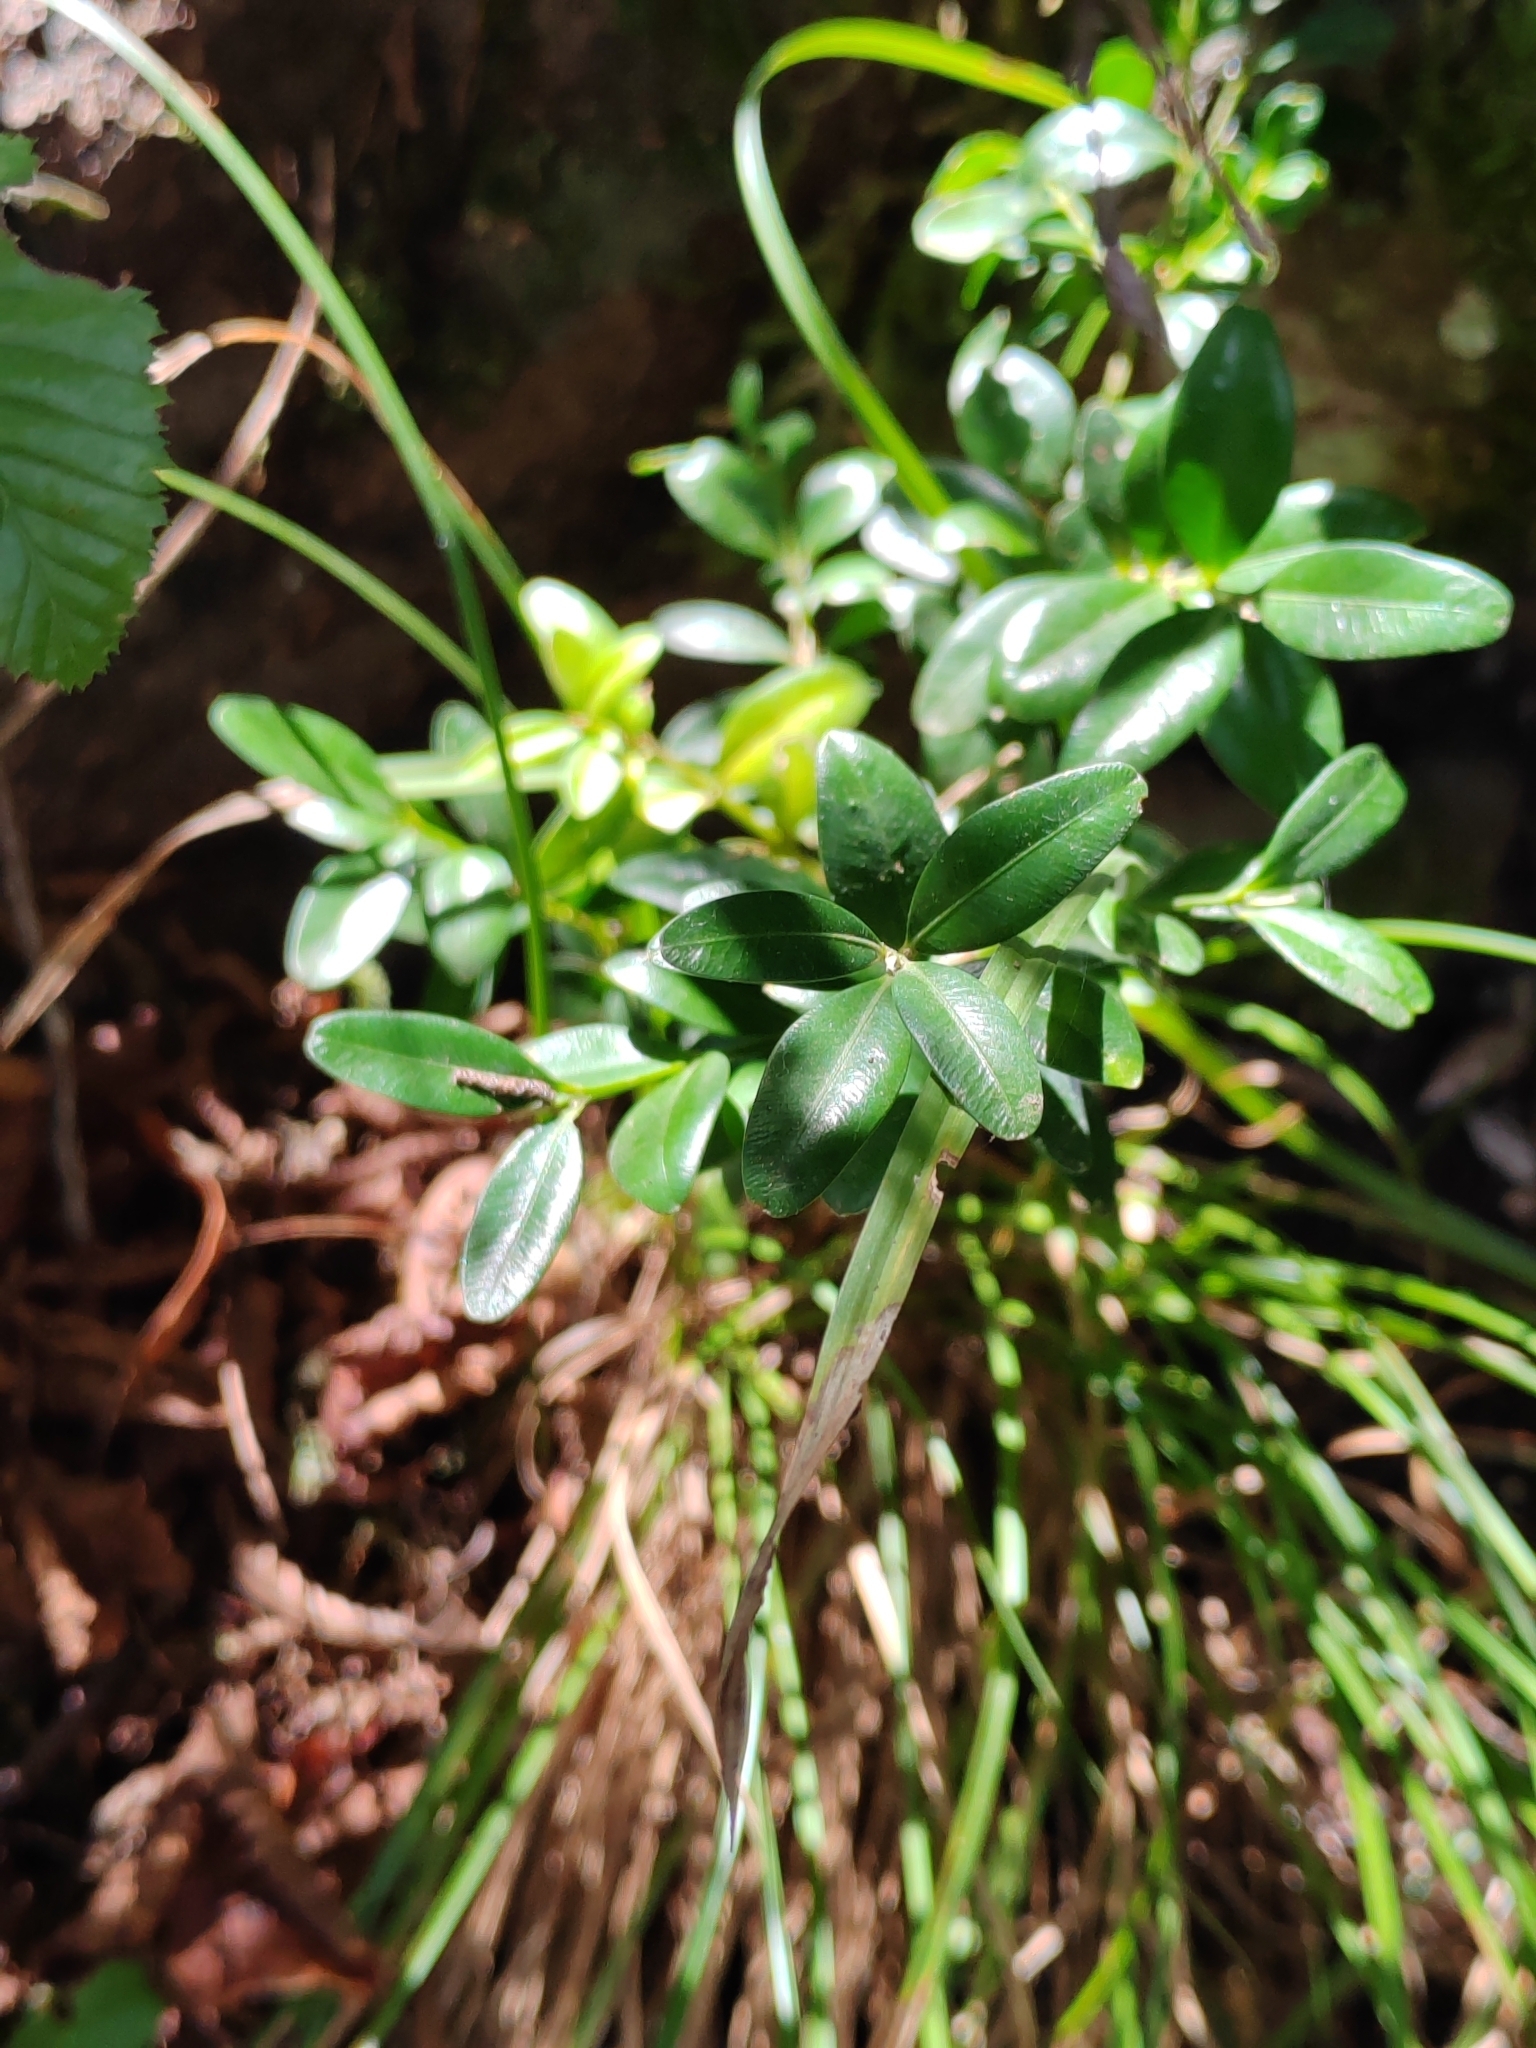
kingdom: Plantae
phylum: Tracheophyta
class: Magnoliopsida
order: Buxales
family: Buxaceae
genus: Buxus
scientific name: Buxus sempervirens
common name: Box
